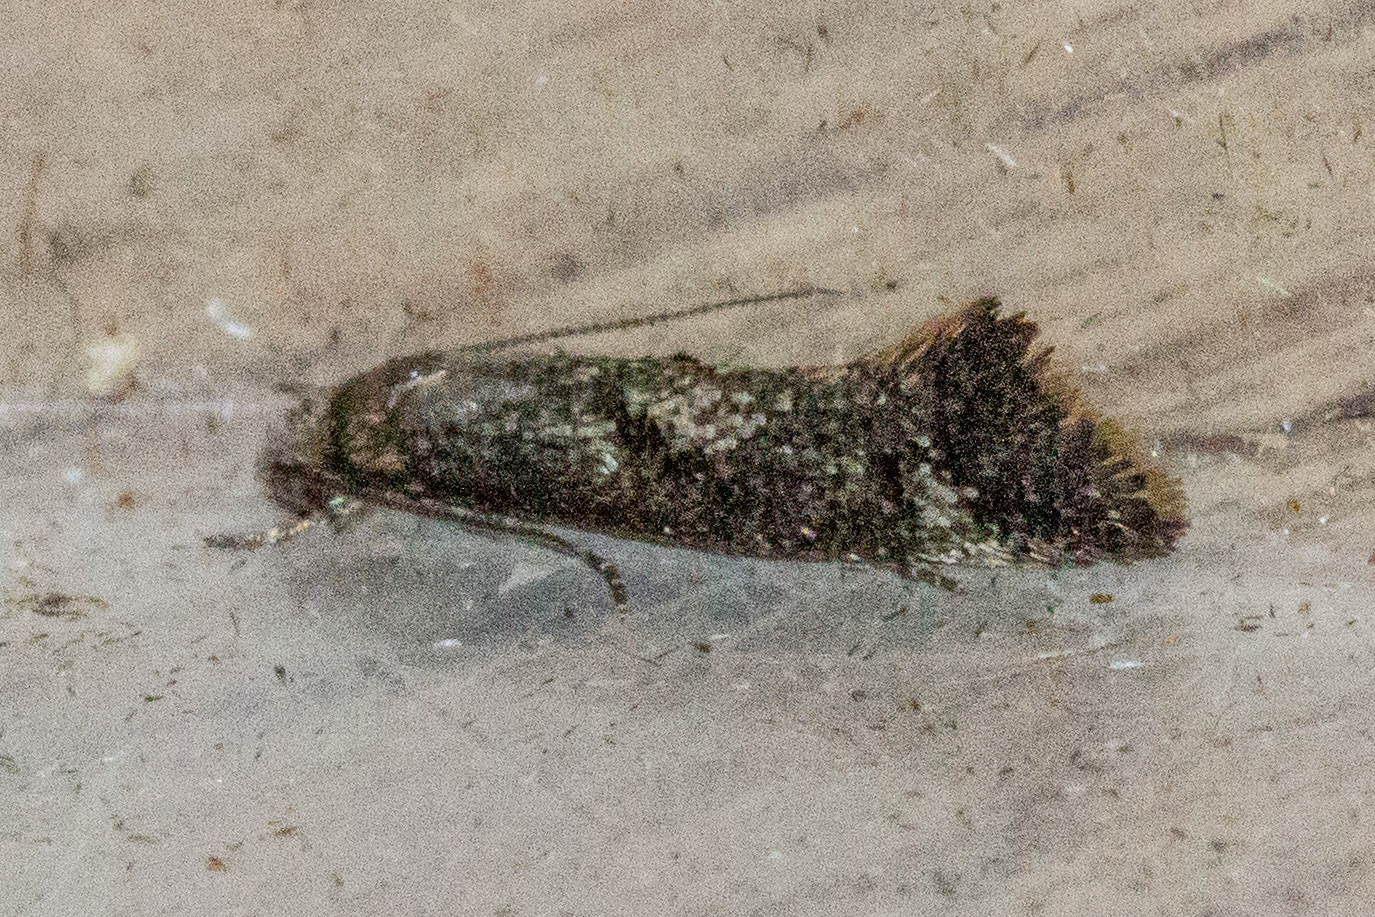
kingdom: Animalia
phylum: Arthropoda
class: Insecta
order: Lepidoptera
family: Tineidae
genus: Tinea
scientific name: Tinea mochlota
